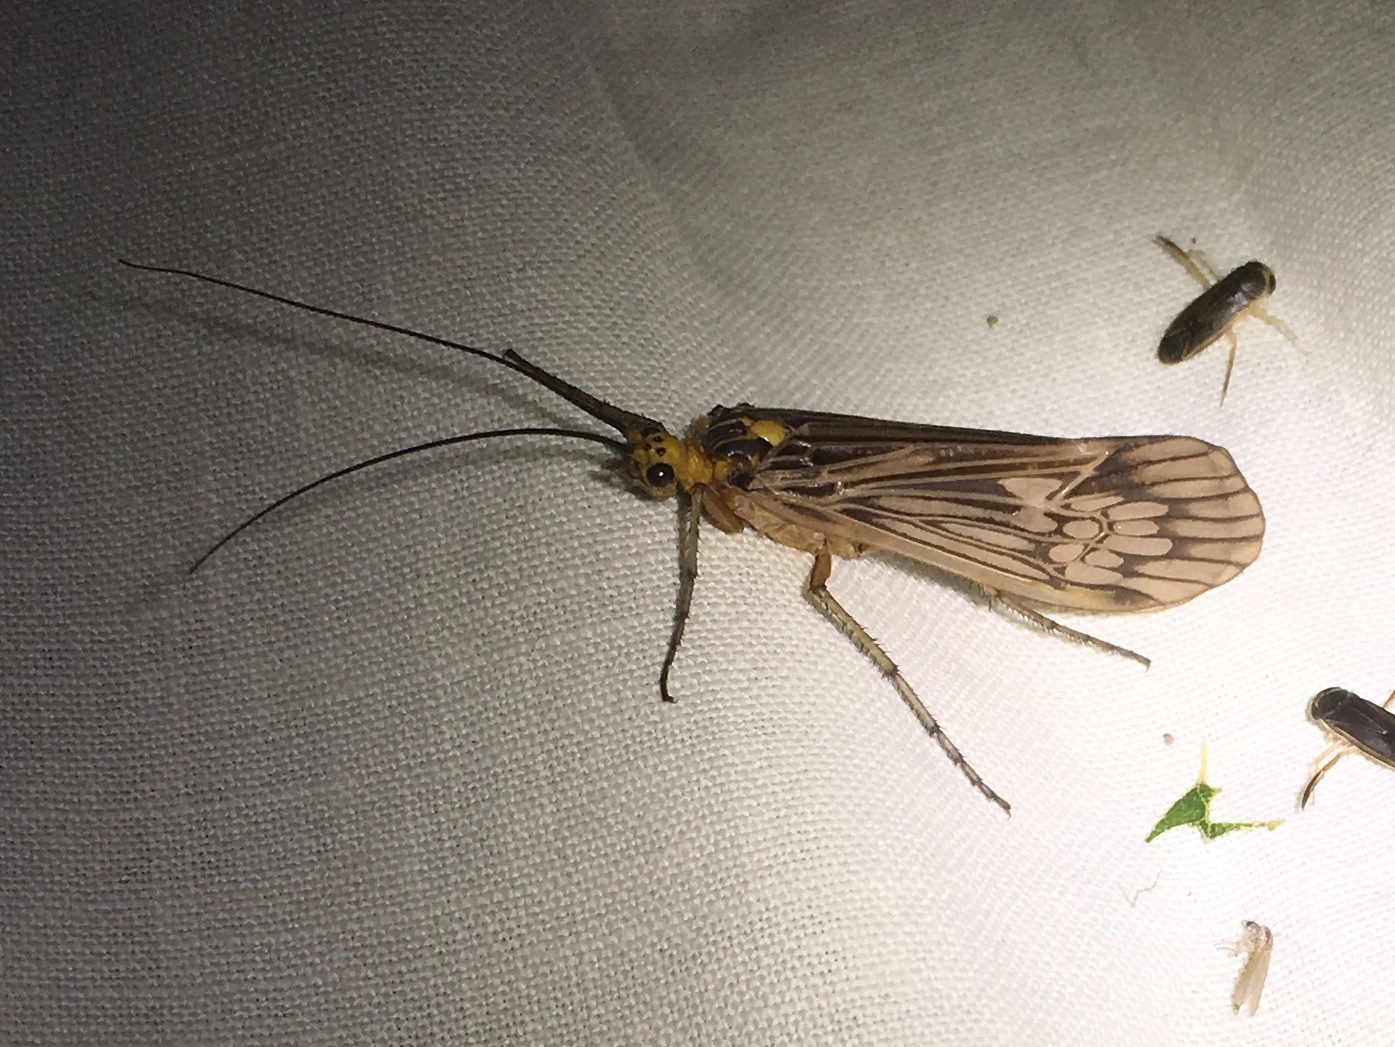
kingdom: Animalia
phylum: Arthropoda
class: Insecta
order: Trichoptera
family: Limnephilidae
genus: Hydatophylax
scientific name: Hydatophylax argus
